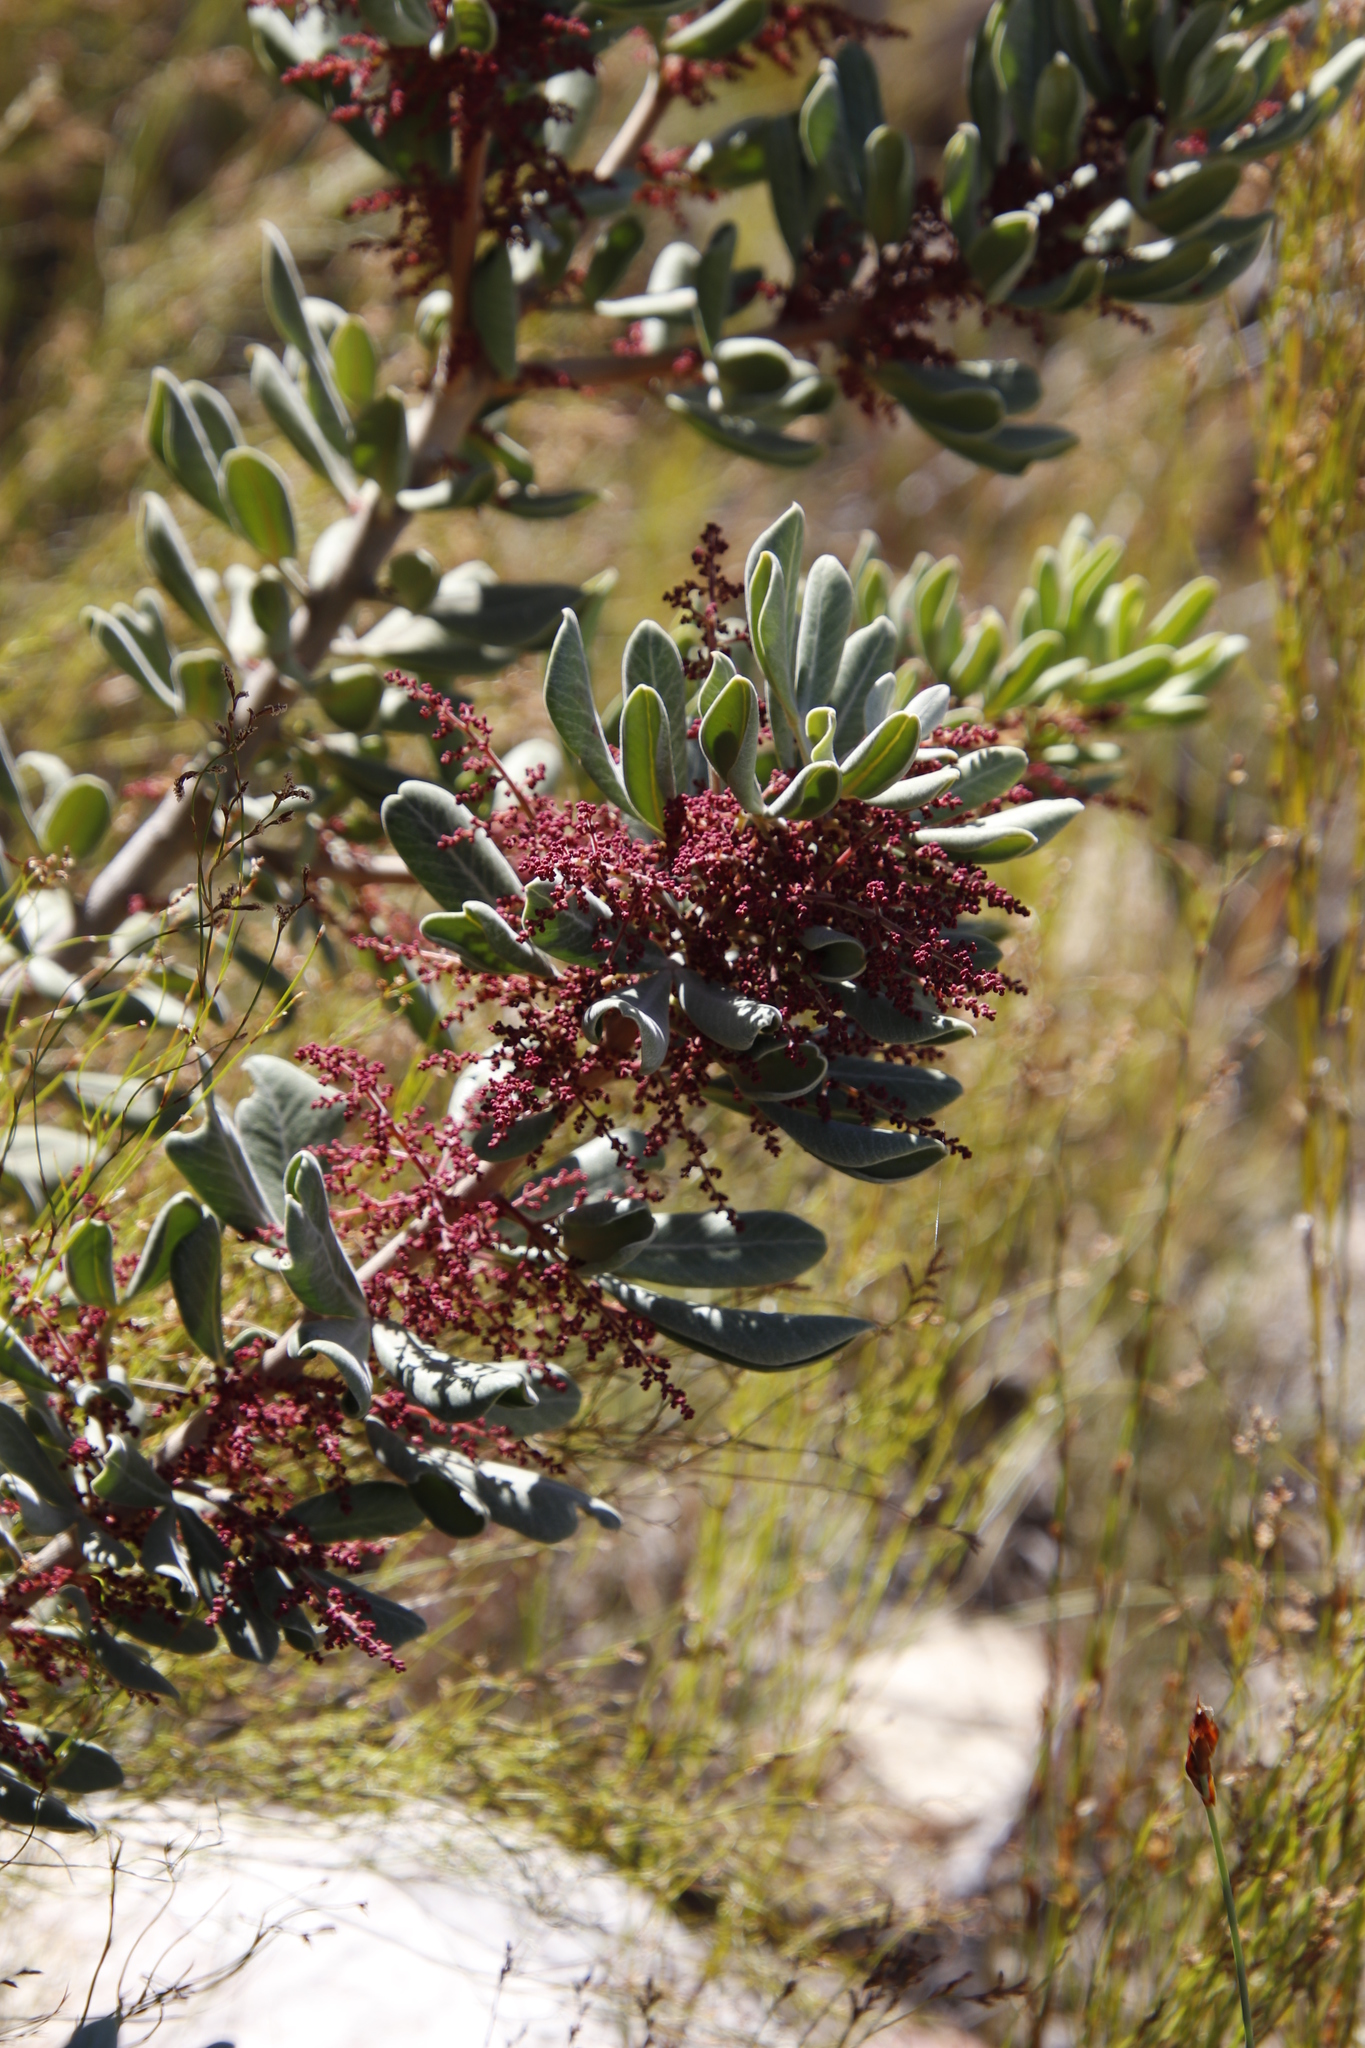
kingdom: Plantae
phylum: Tracheophyta
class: Magnoliopsida
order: Sapindales
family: Anacardiaceae
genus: Searsia
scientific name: Searsia scytophylla
